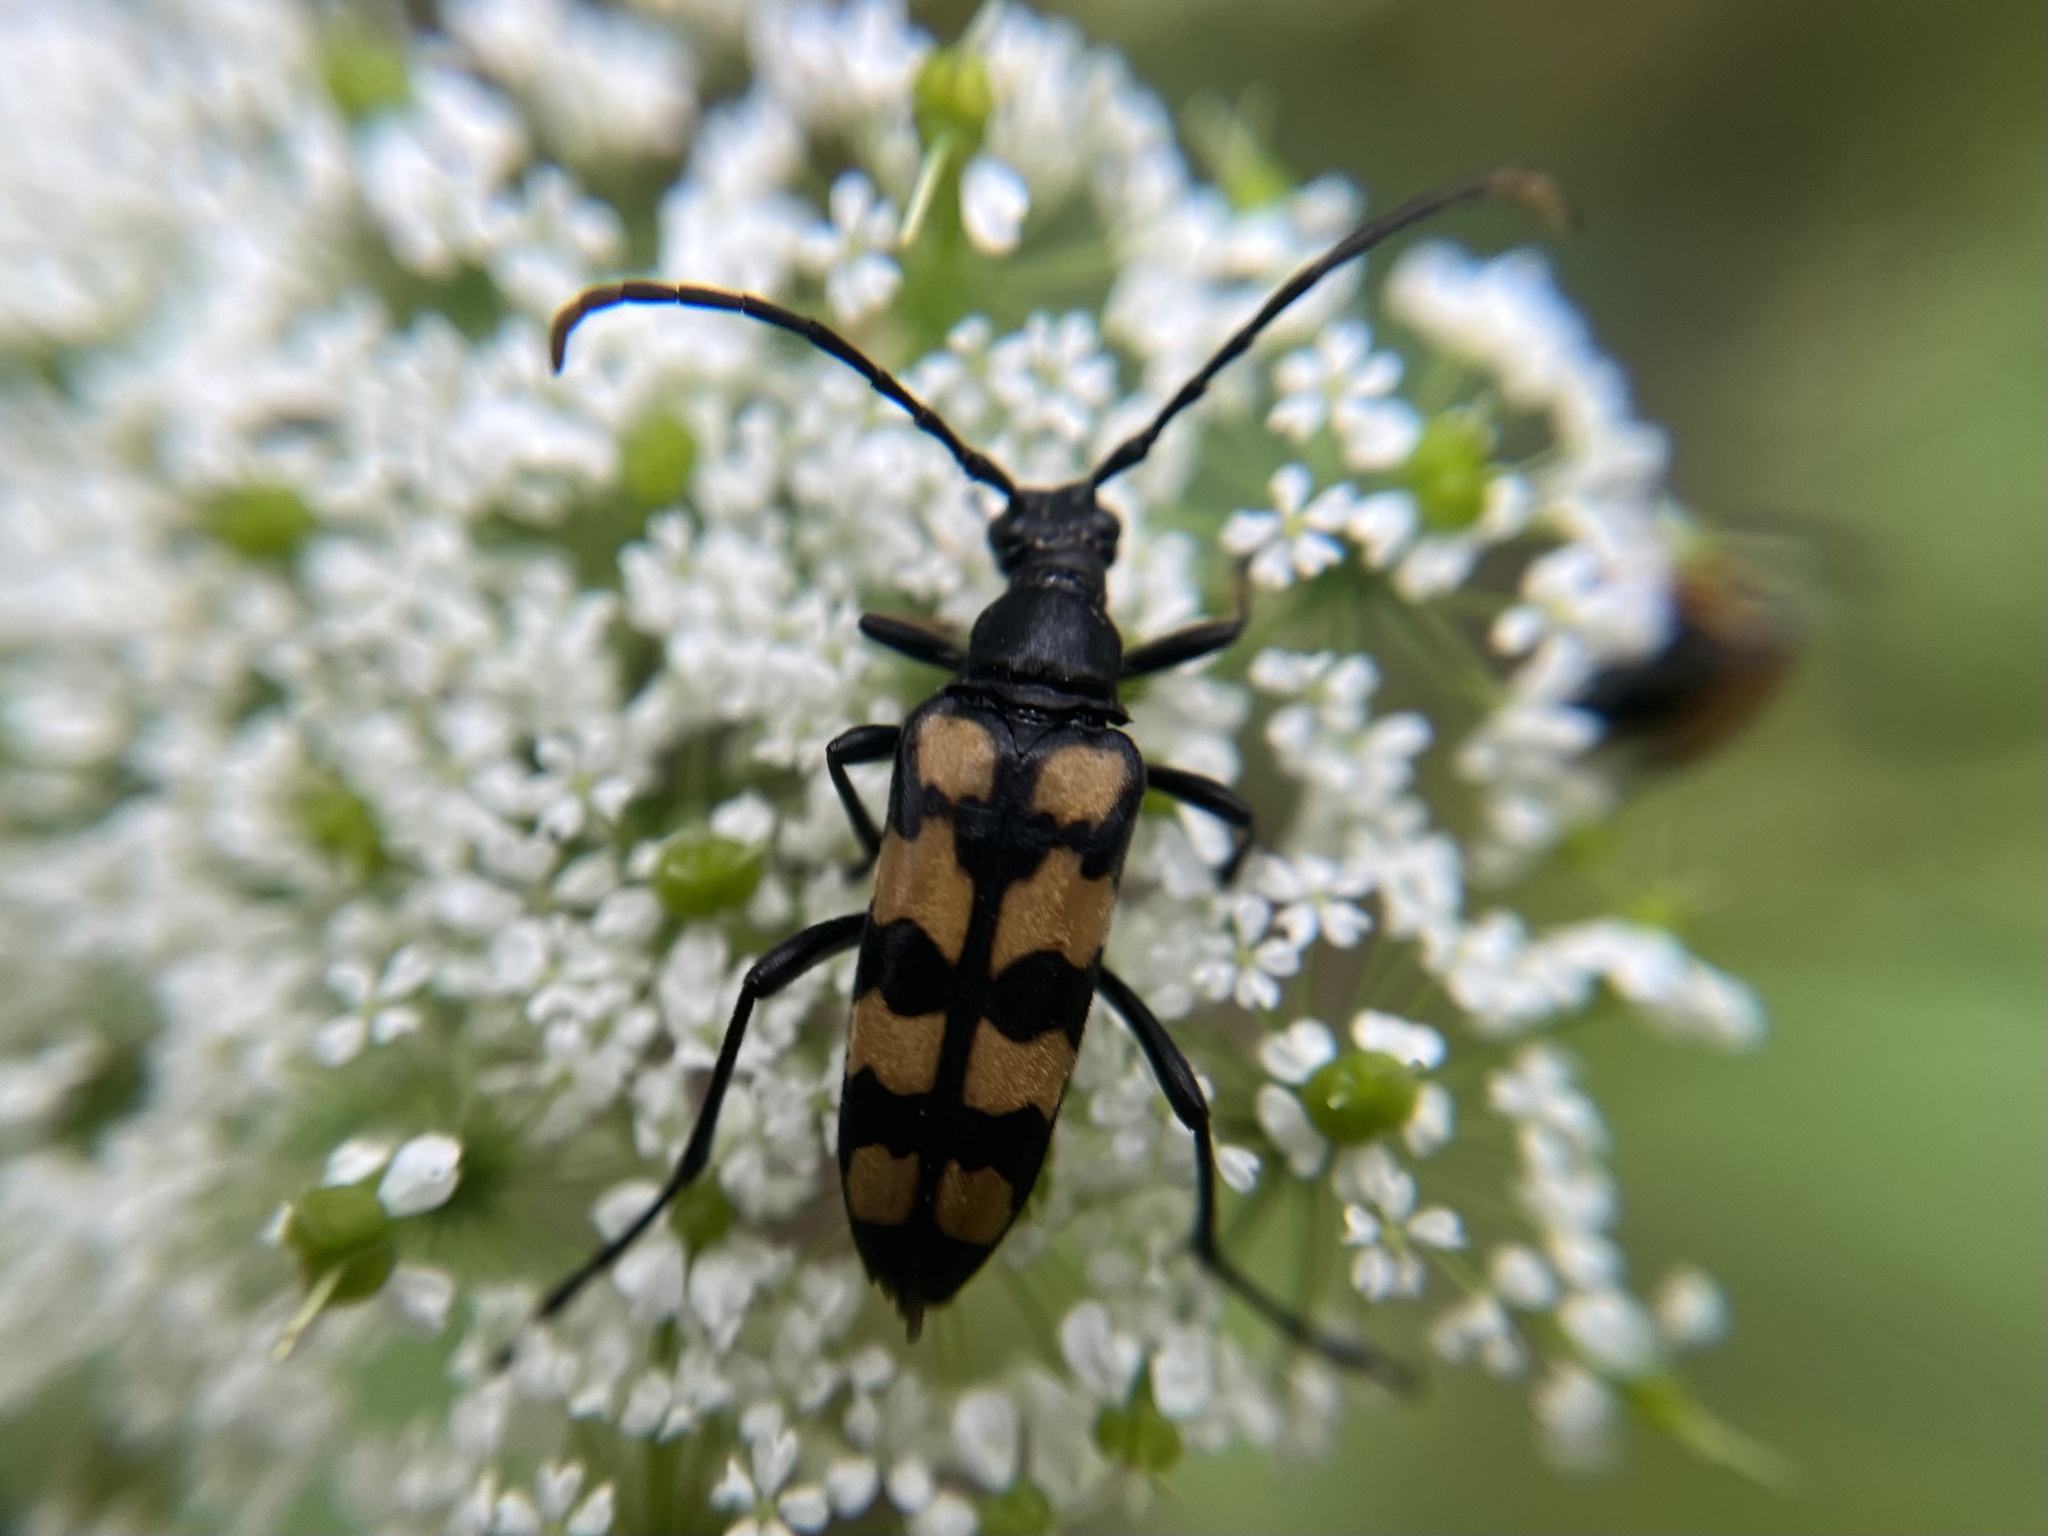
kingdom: Animalia
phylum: Arthropoda
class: Insecta
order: Coleoptera
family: Cerambycidae
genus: Leptura
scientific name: Leptura quadrifasciata
